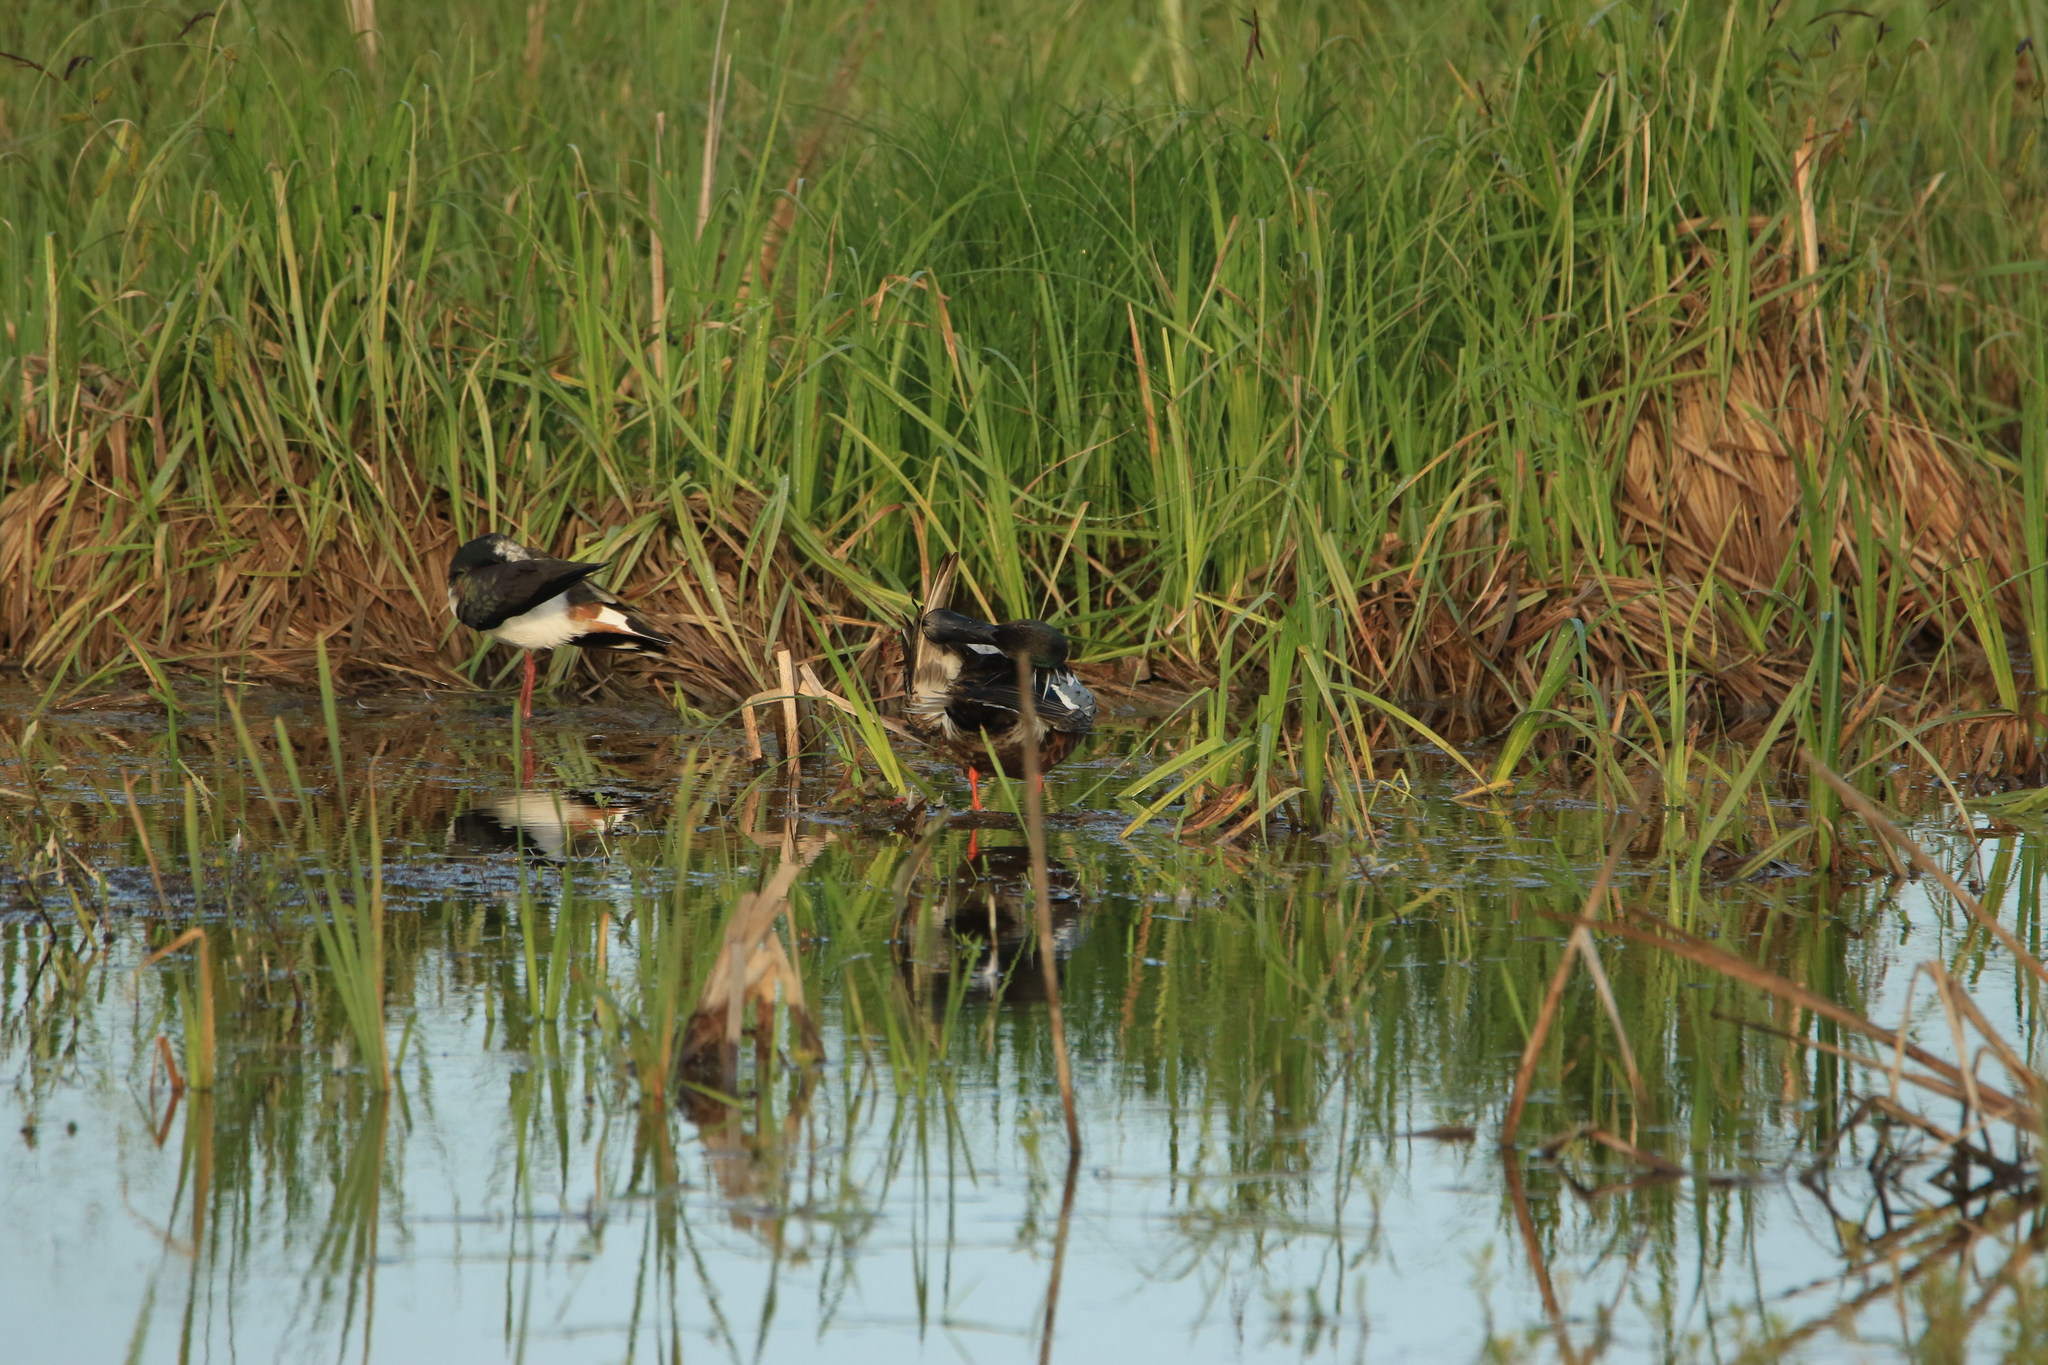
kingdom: Animalia
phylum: Chordata
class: Aves
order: Charadriiformes
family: Charadriidae
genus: Vanellus
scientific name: Vanellus vanellus
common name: Northern lapwing
